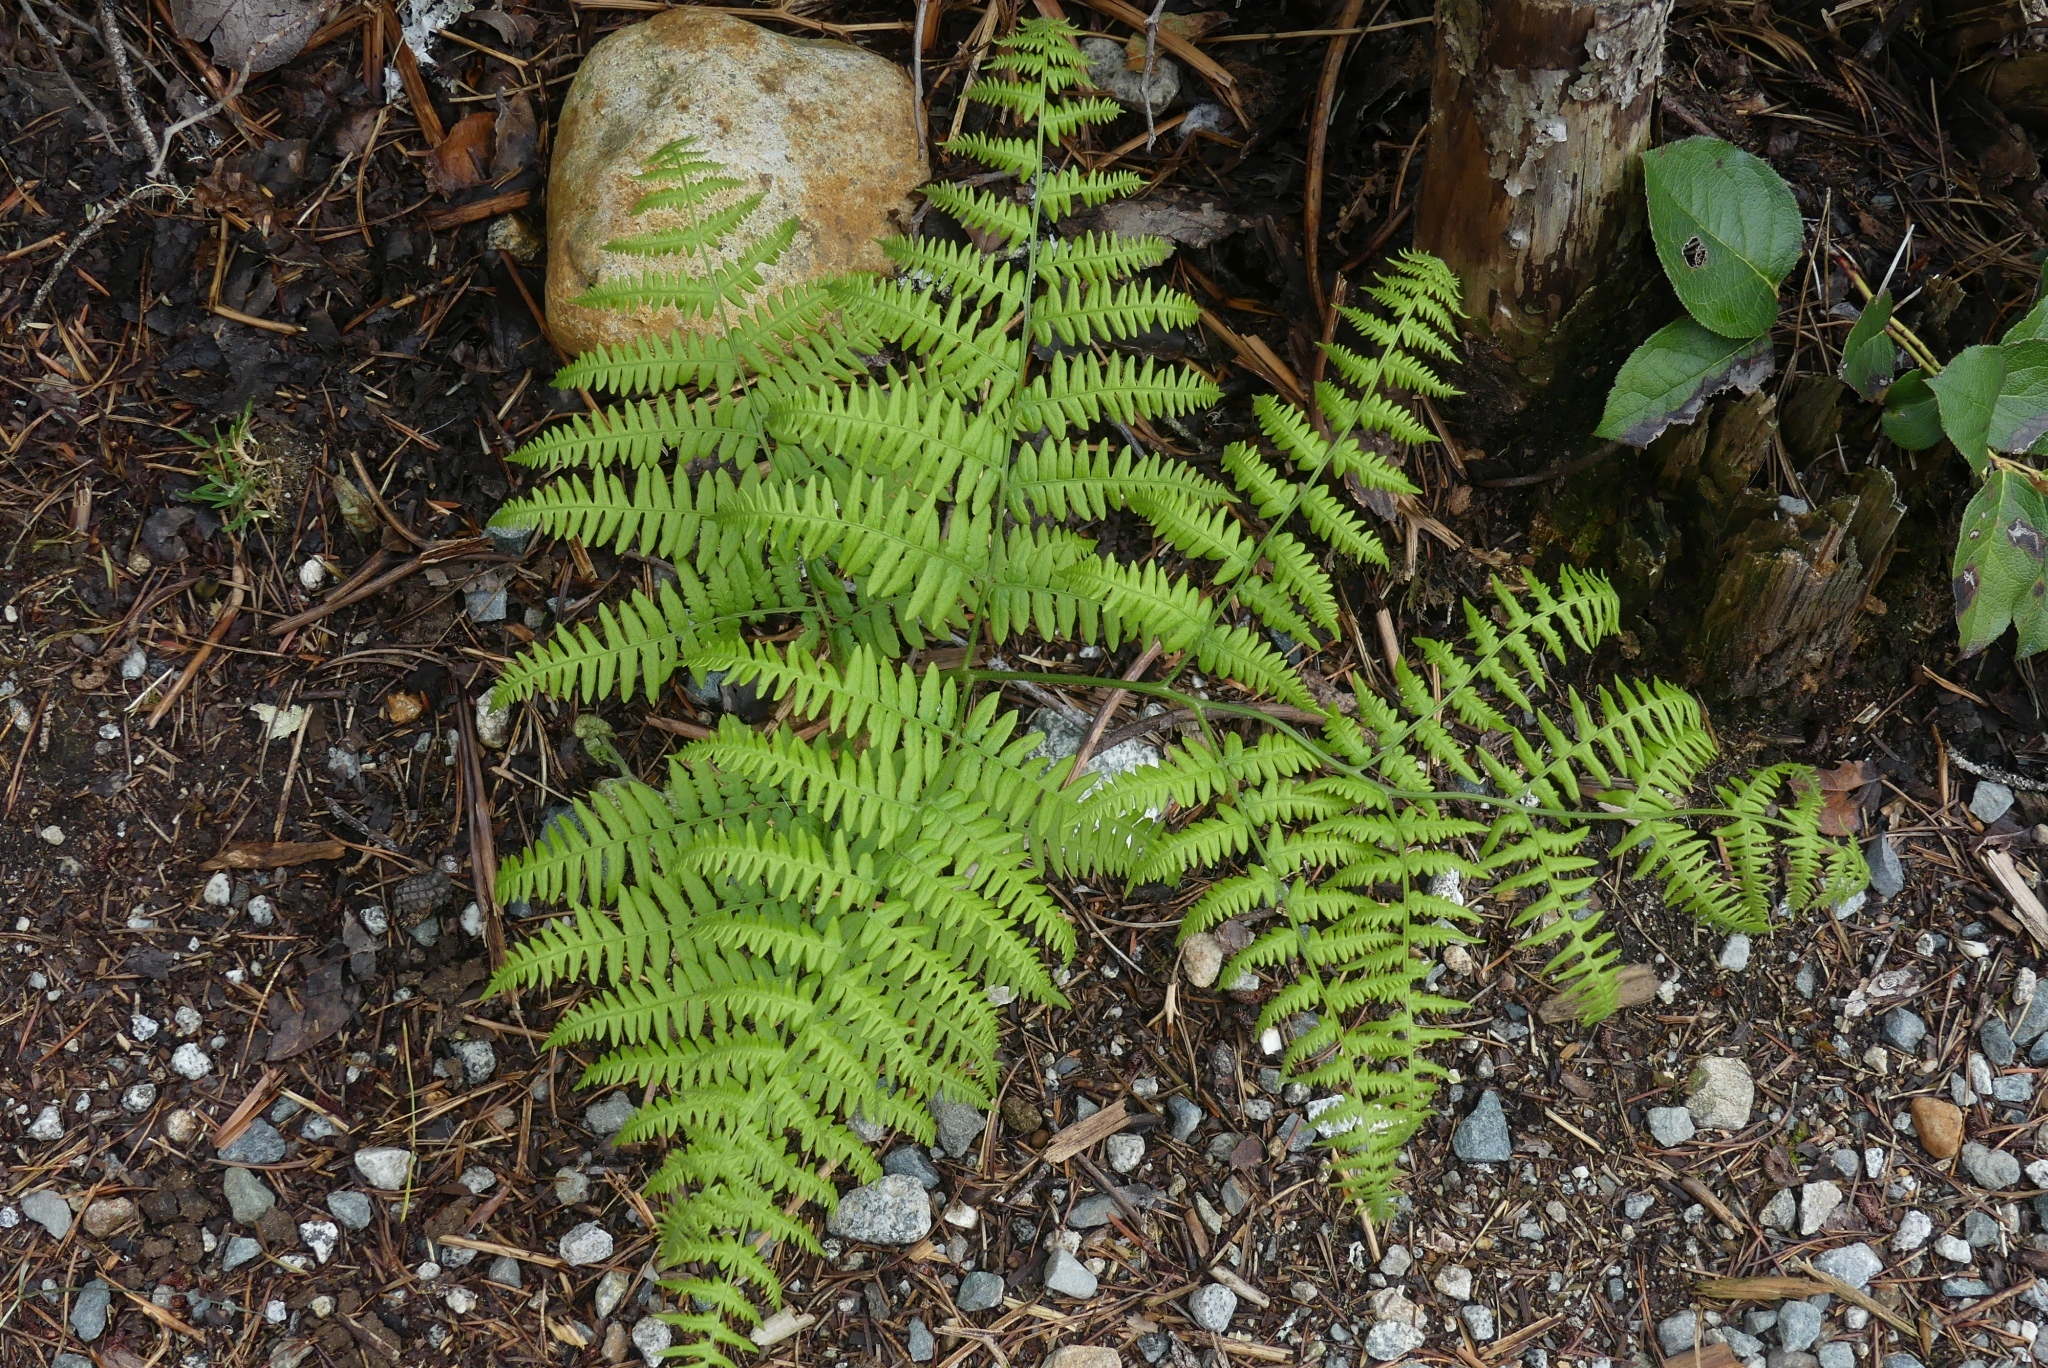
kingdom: Plantae
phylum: Tracheophyta
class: Polypodiopsida
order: Polypodiales
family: Dennstaedtiaceae
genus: Pteridium
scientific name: Pteridium aquilinum
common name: Bracken
